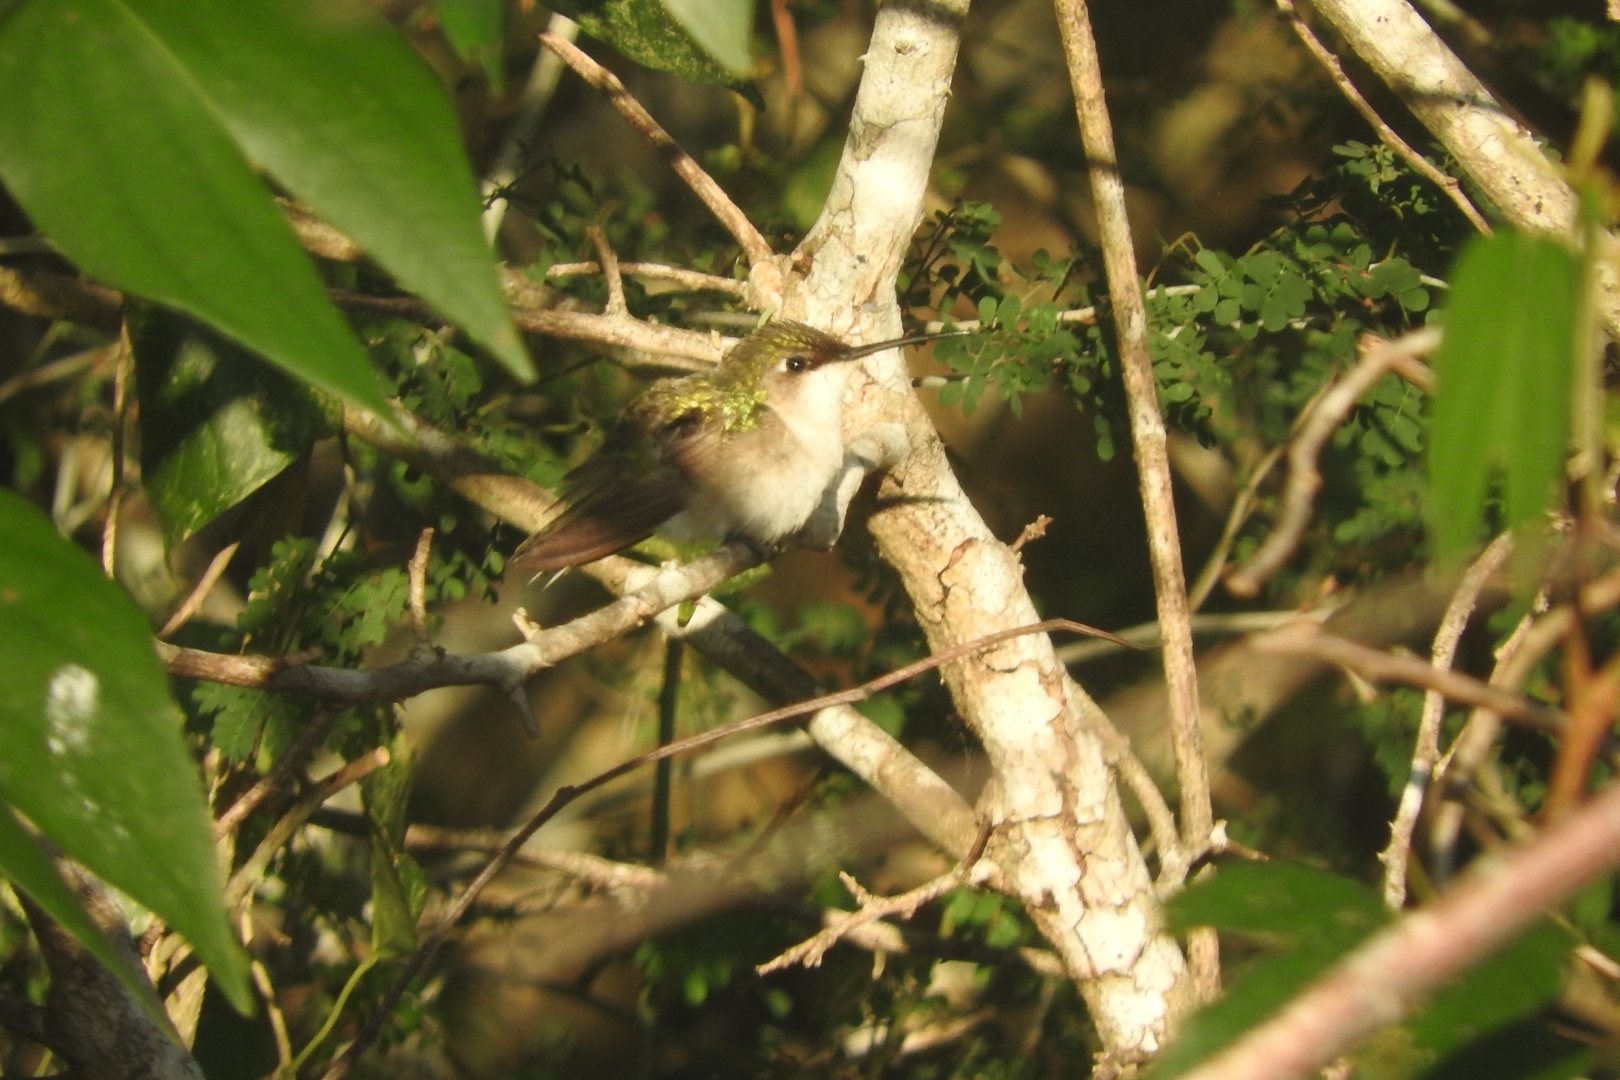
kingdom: Animalia
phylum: Chordata
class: Aves
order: Apodiformes
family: Trochilidae
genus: Archilochus
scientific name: Archilochus colubris
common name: Ruby-throated hummingbird
